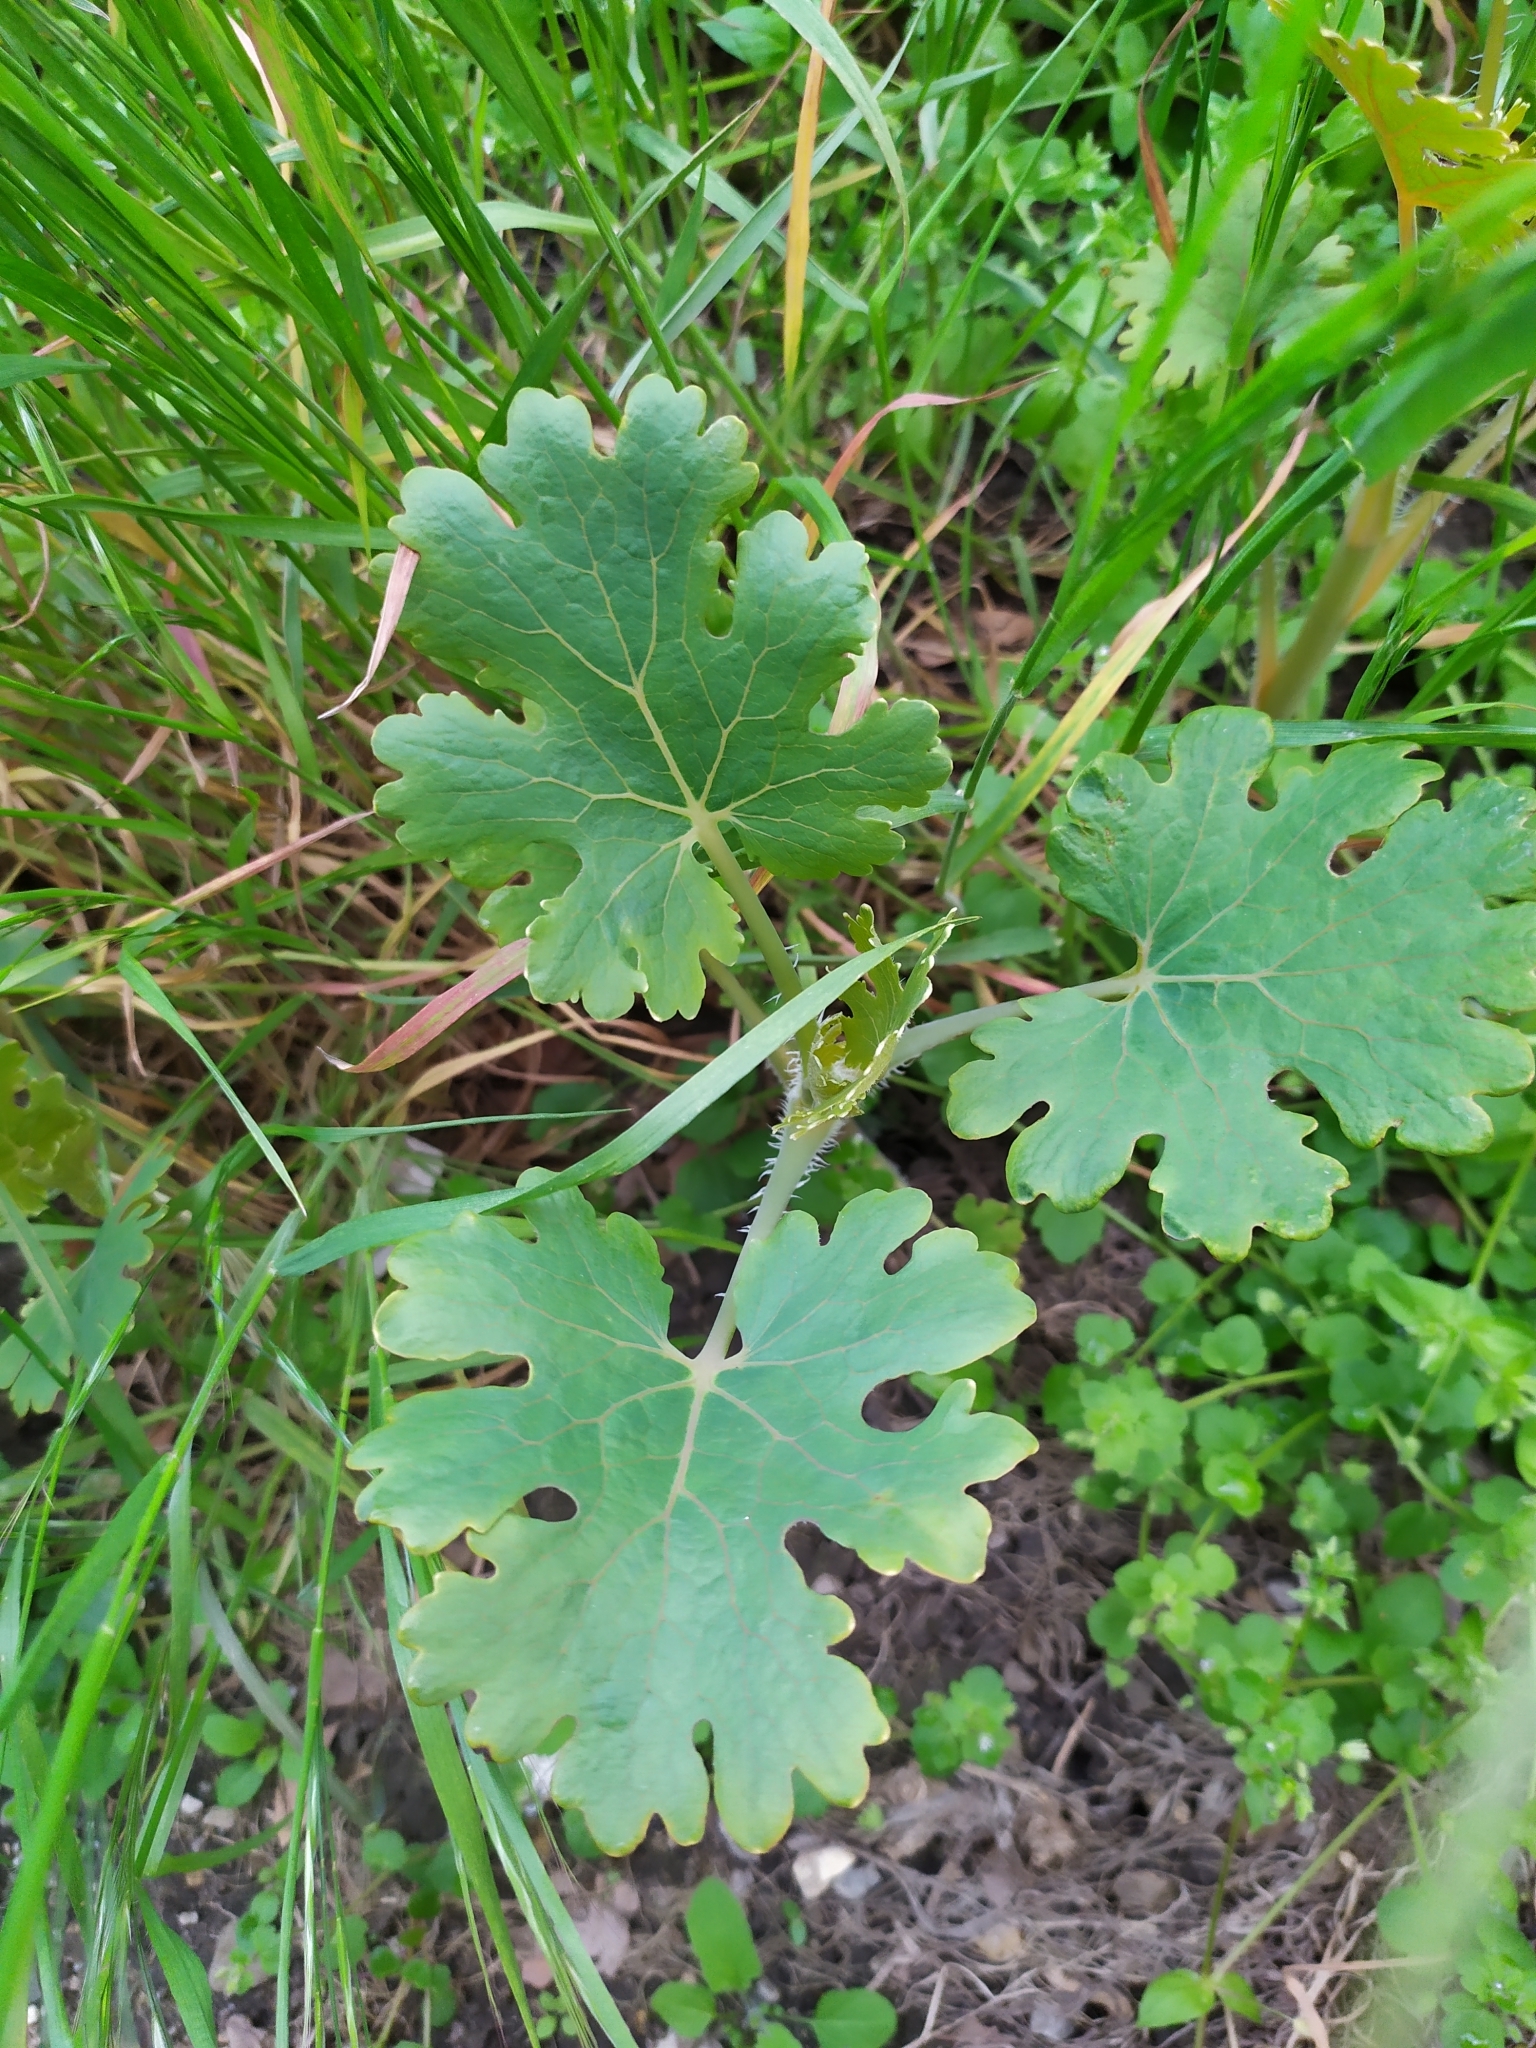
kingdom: Plantae
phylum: Tracheophyta
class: Magnoliopsida
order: Ranunculales
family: Papaveraceae
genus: Macleaya
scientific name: Macleaya cordata
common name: Plume poppy
